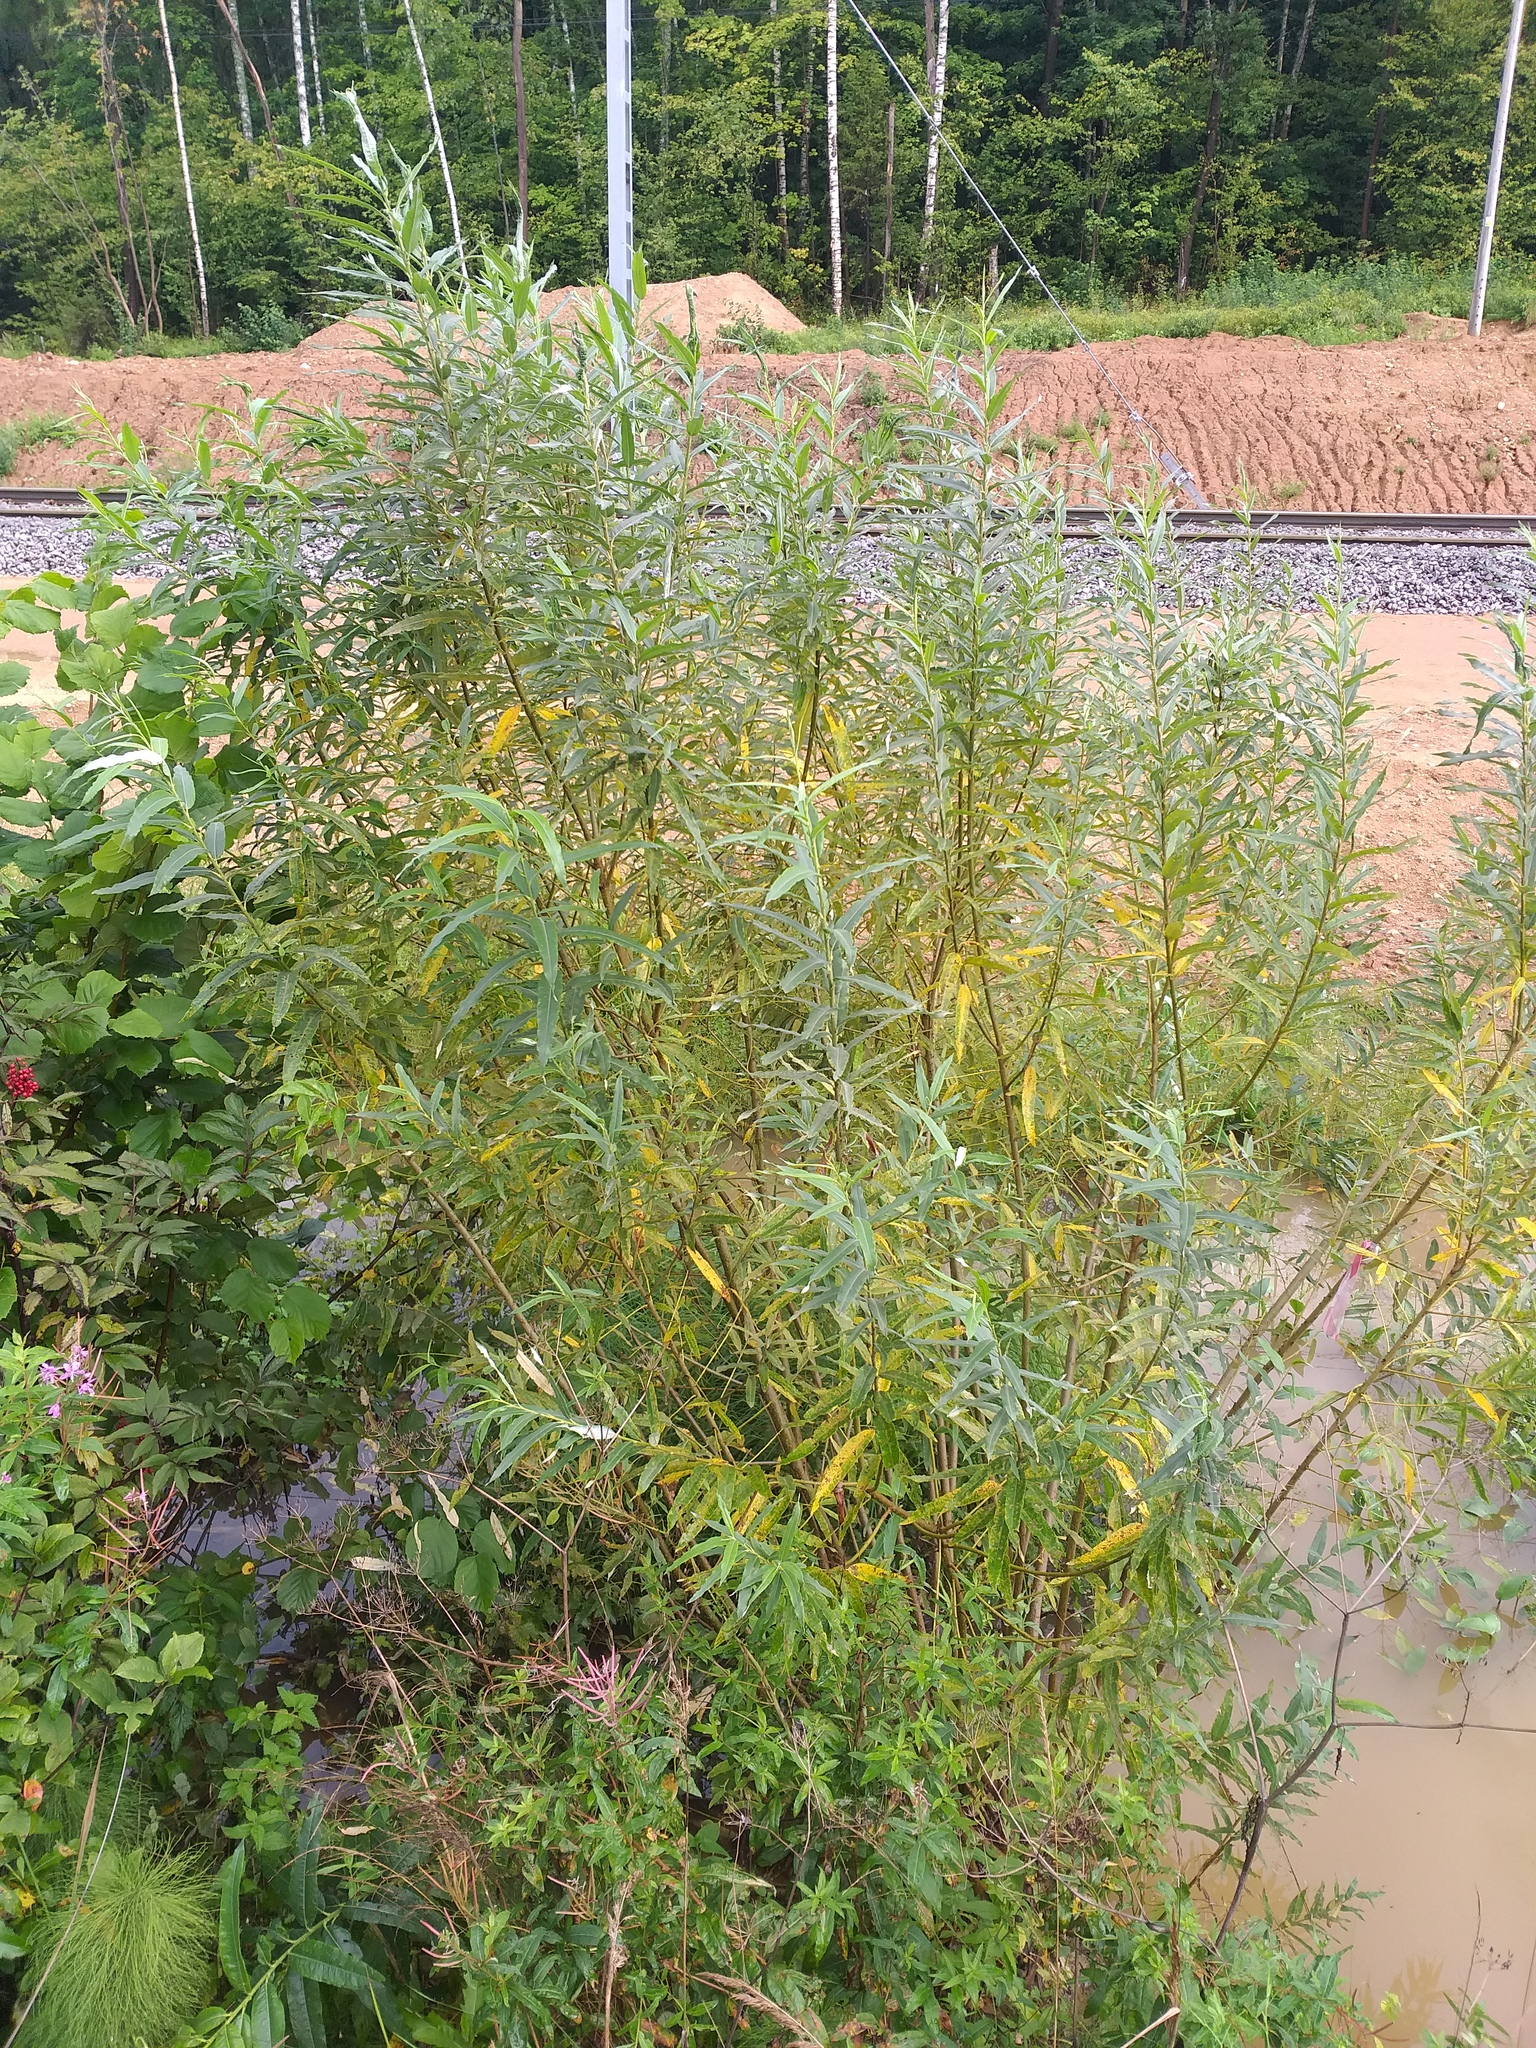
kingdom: Plantae
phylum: Tracheophyta
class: Magnoliopsida
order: Malpighiales
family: Salicaceae
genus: Salix
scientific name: Salix viminalis
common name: Osier
